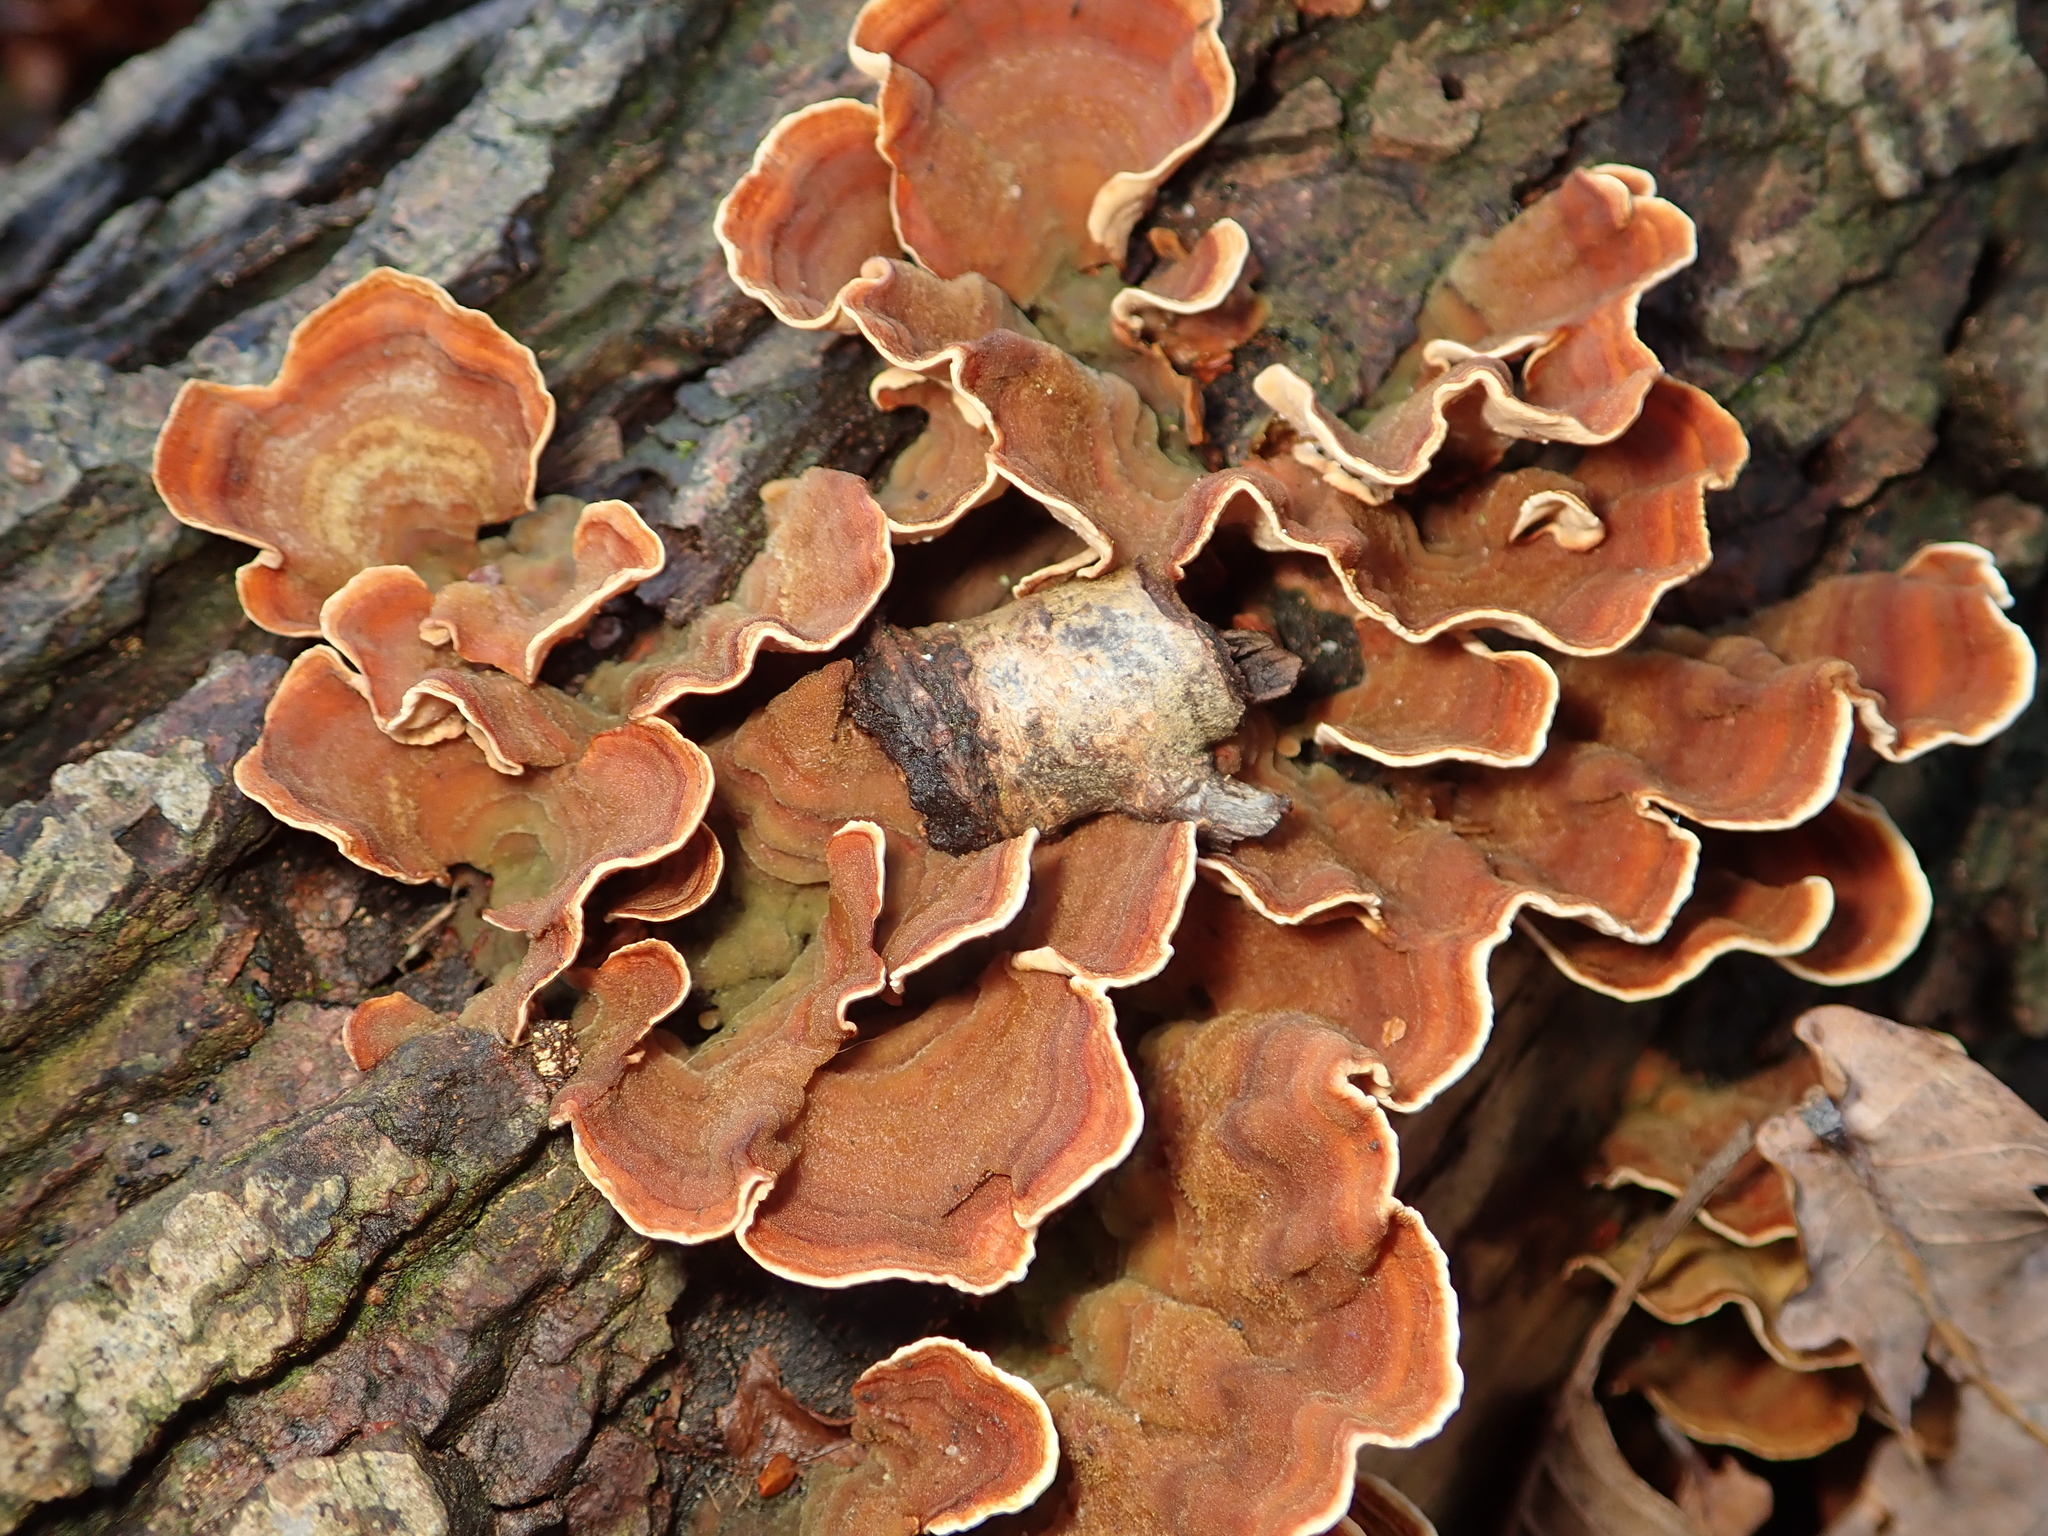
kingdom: Fungi
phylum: Basidiomycota
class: Agaricomycetes
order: Russulales
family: Stereaceae
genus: Stereum
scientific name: Stereum subtomentosum
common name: Yellowing curtain crust
